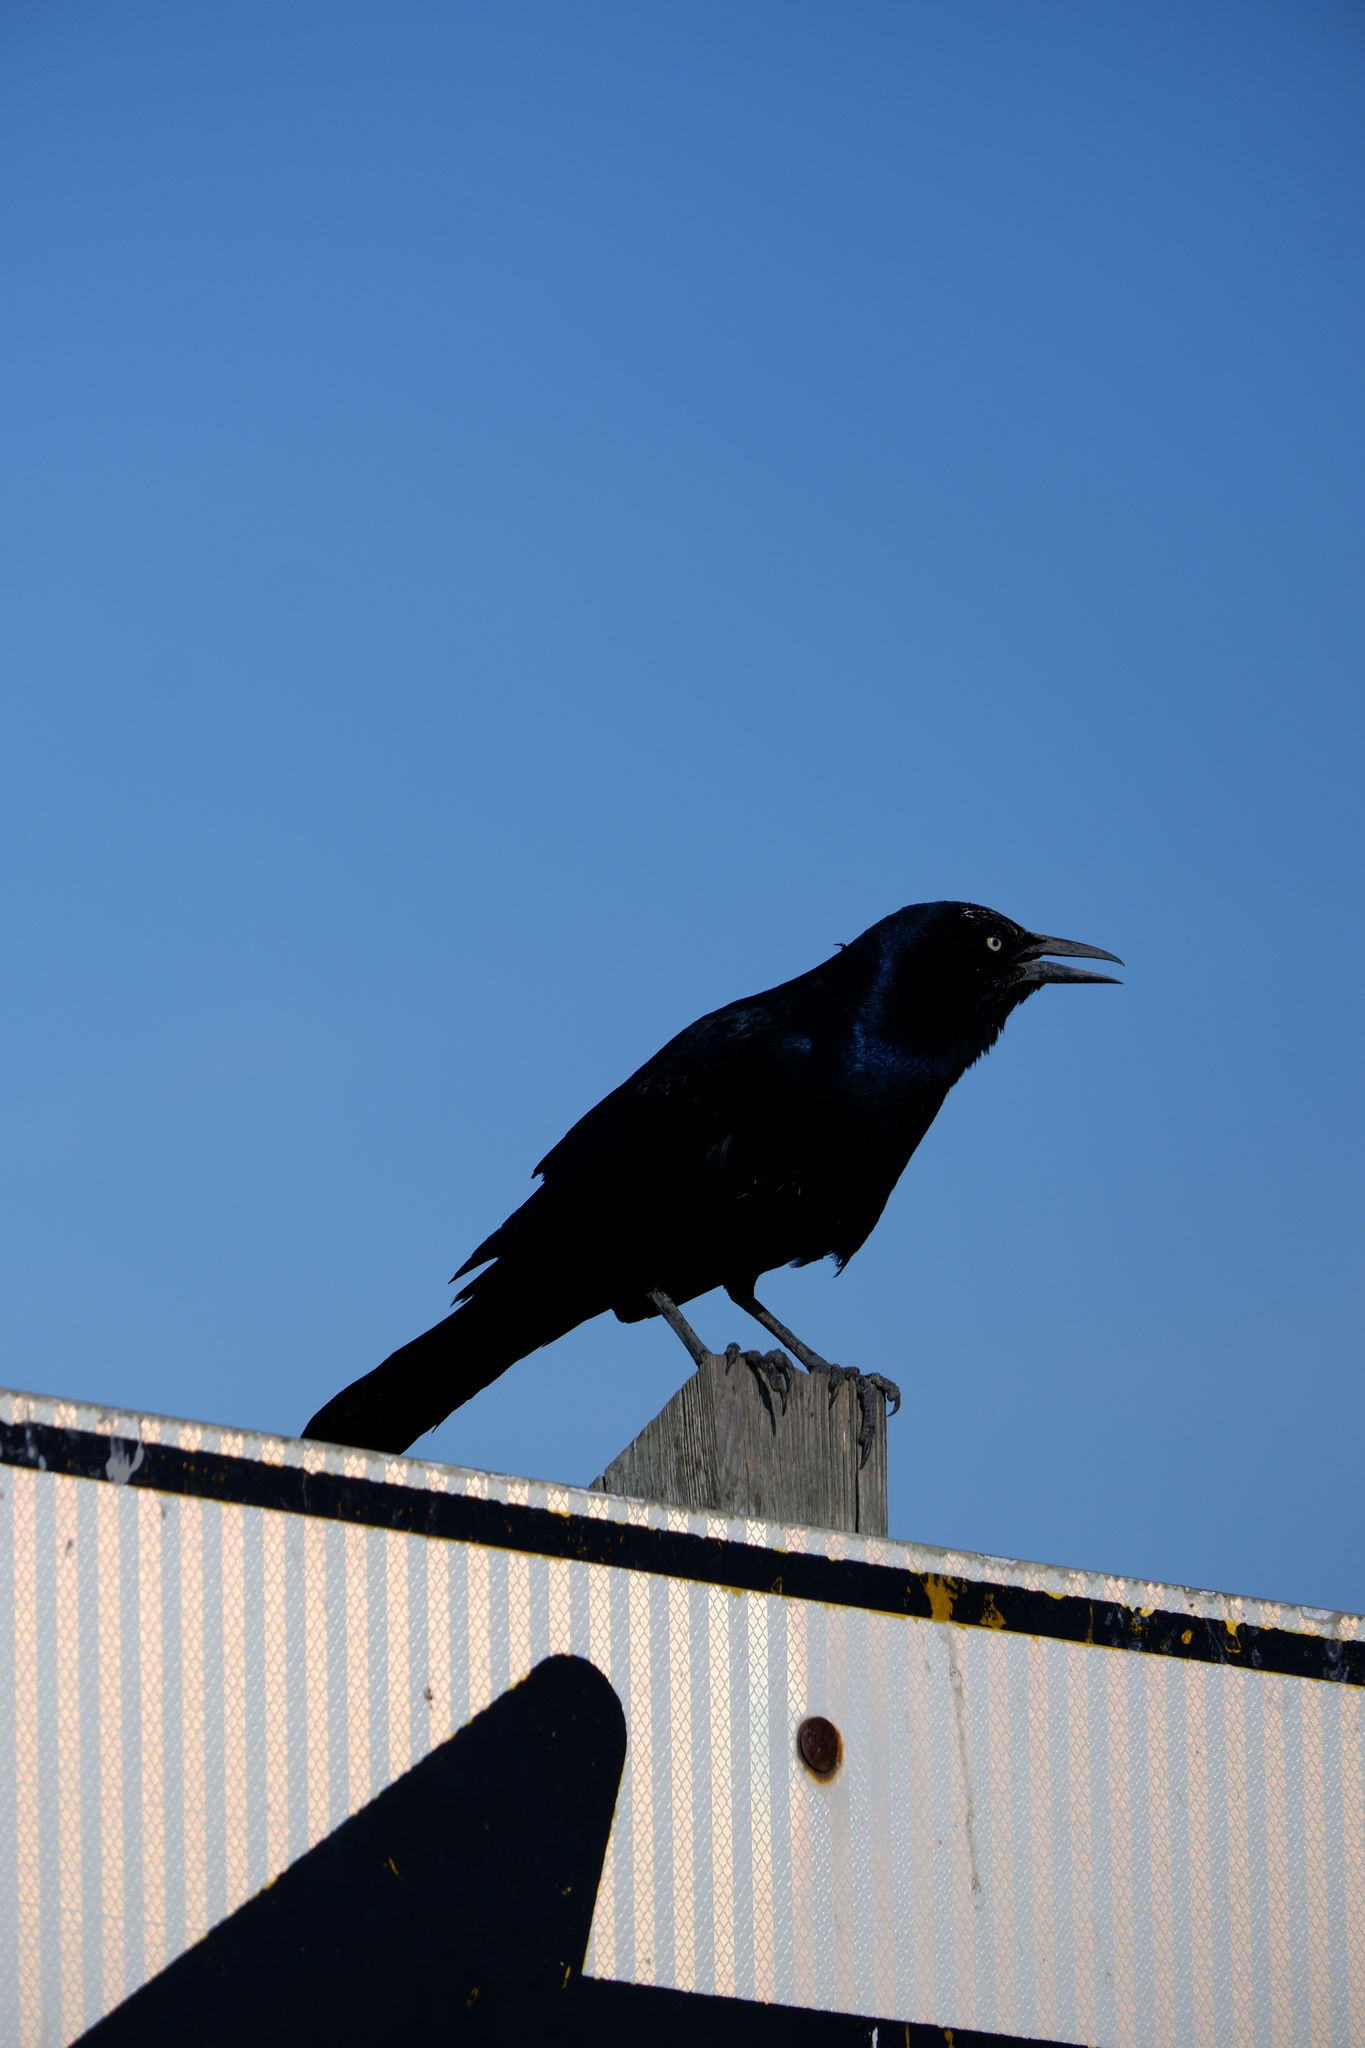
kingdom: Animalia
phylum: Chordata
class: Aves
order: Passeriformes
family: Icteridae
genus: Quiscalus
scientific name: Quiscalus major
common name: Boat-tailed grackle
